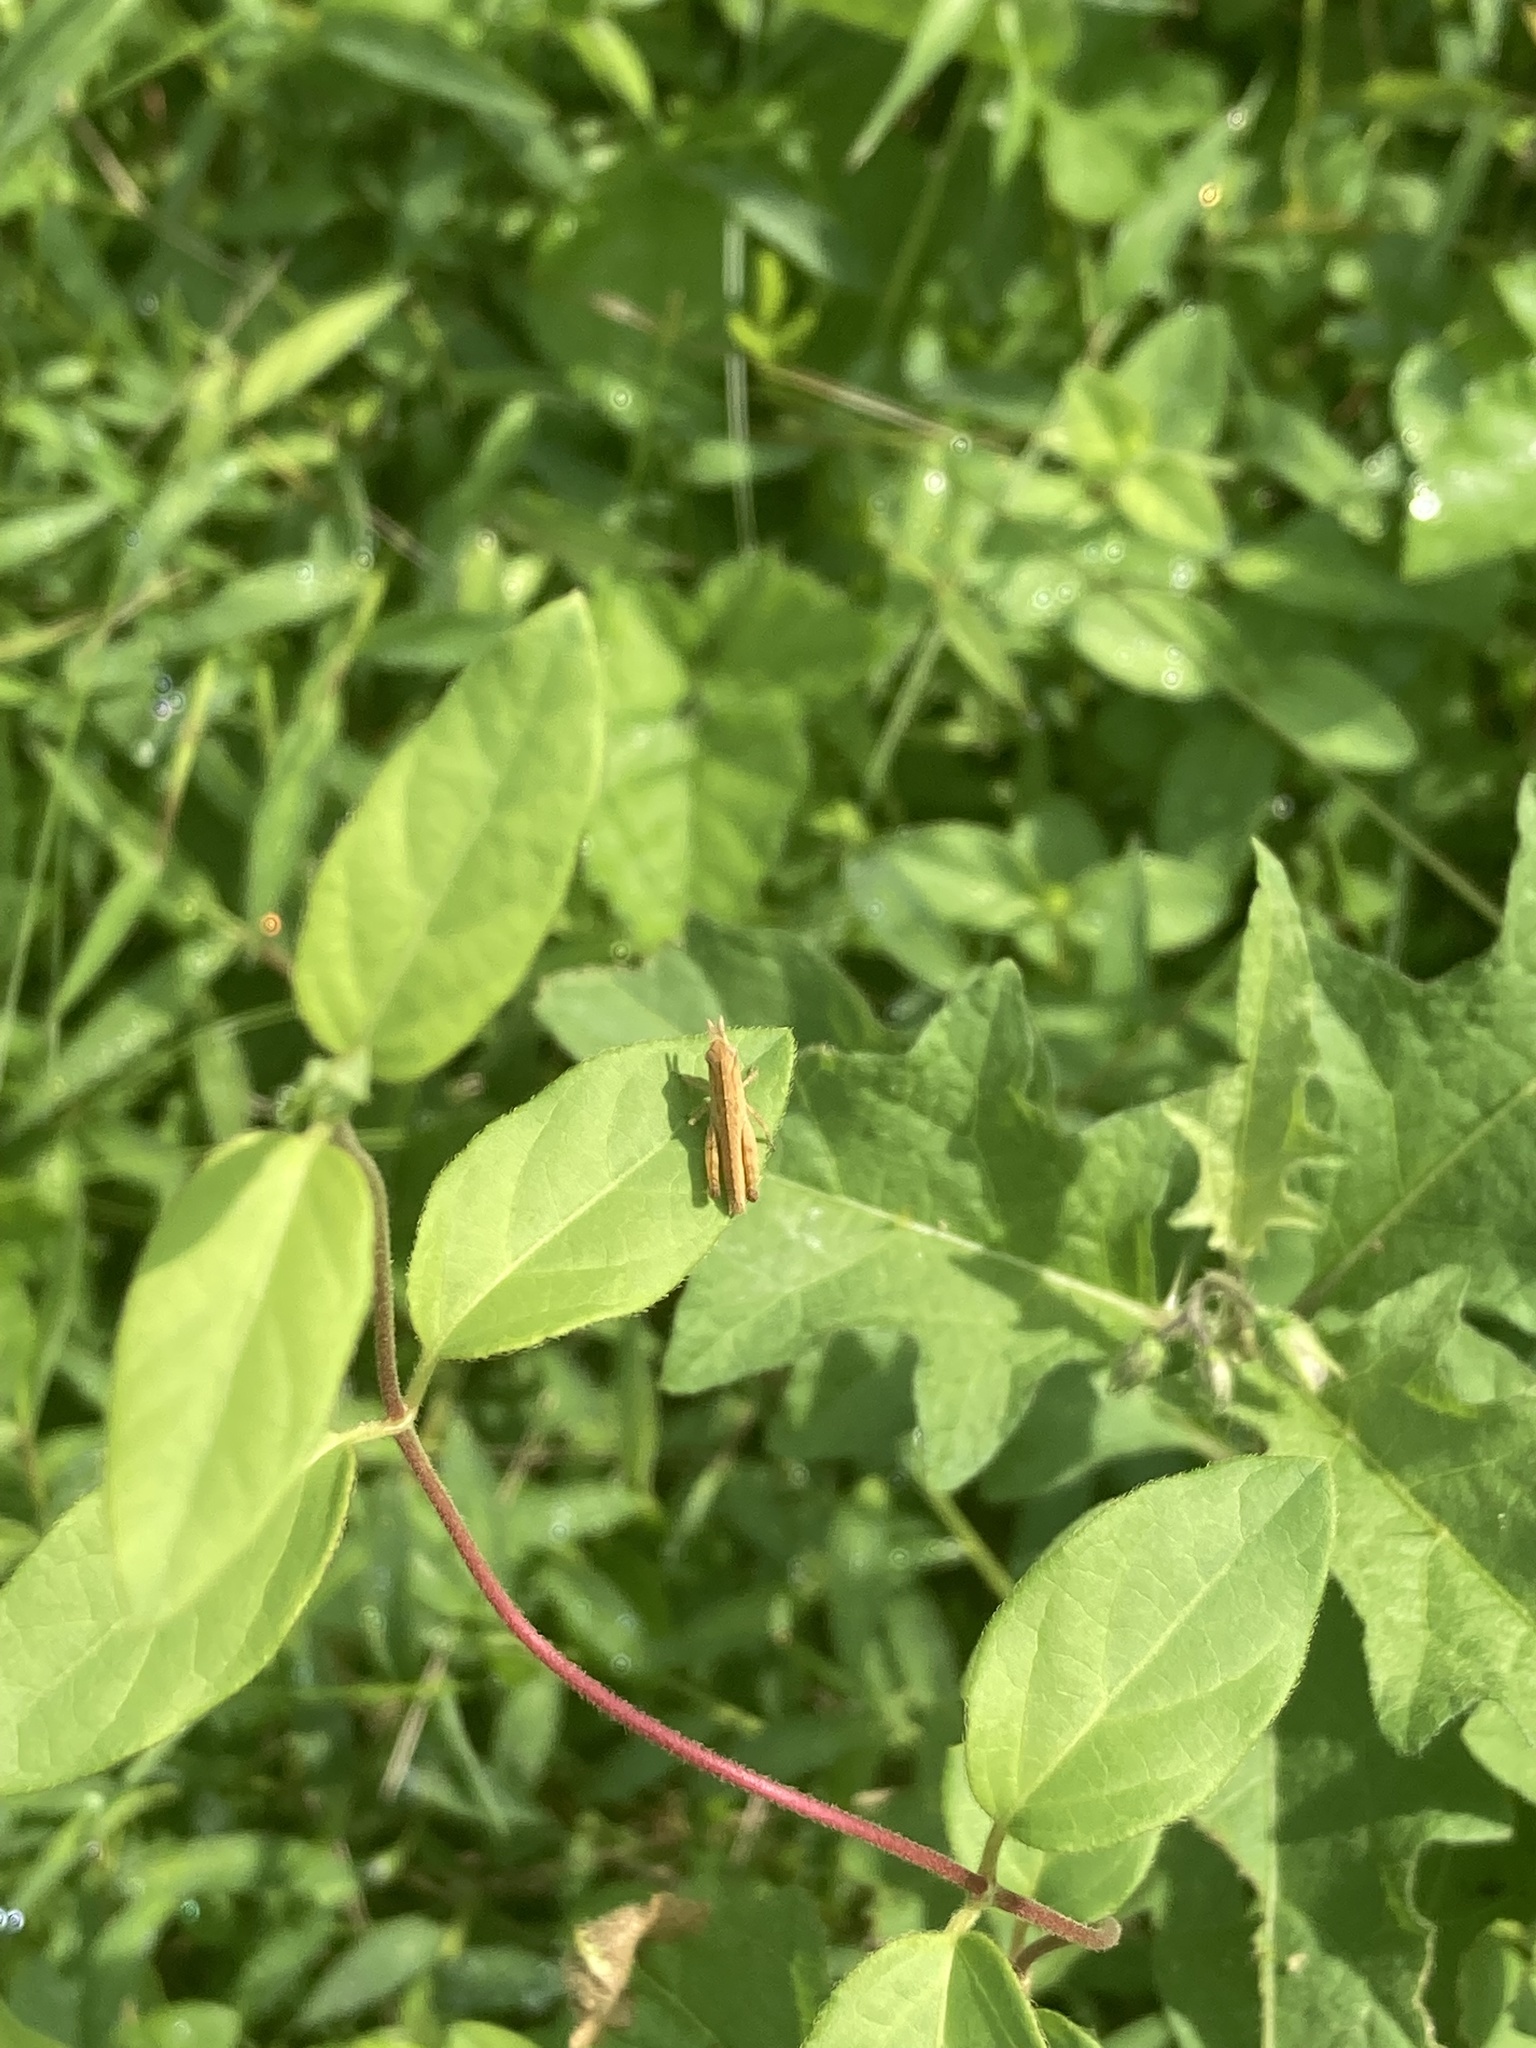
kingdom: Animalia
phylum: Arthropoda
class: Insecta
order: Orthoptera
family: Acrididae
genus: Chortophaga
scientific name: Chortophaga viridifasciata
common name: Green-striped grasshopper
